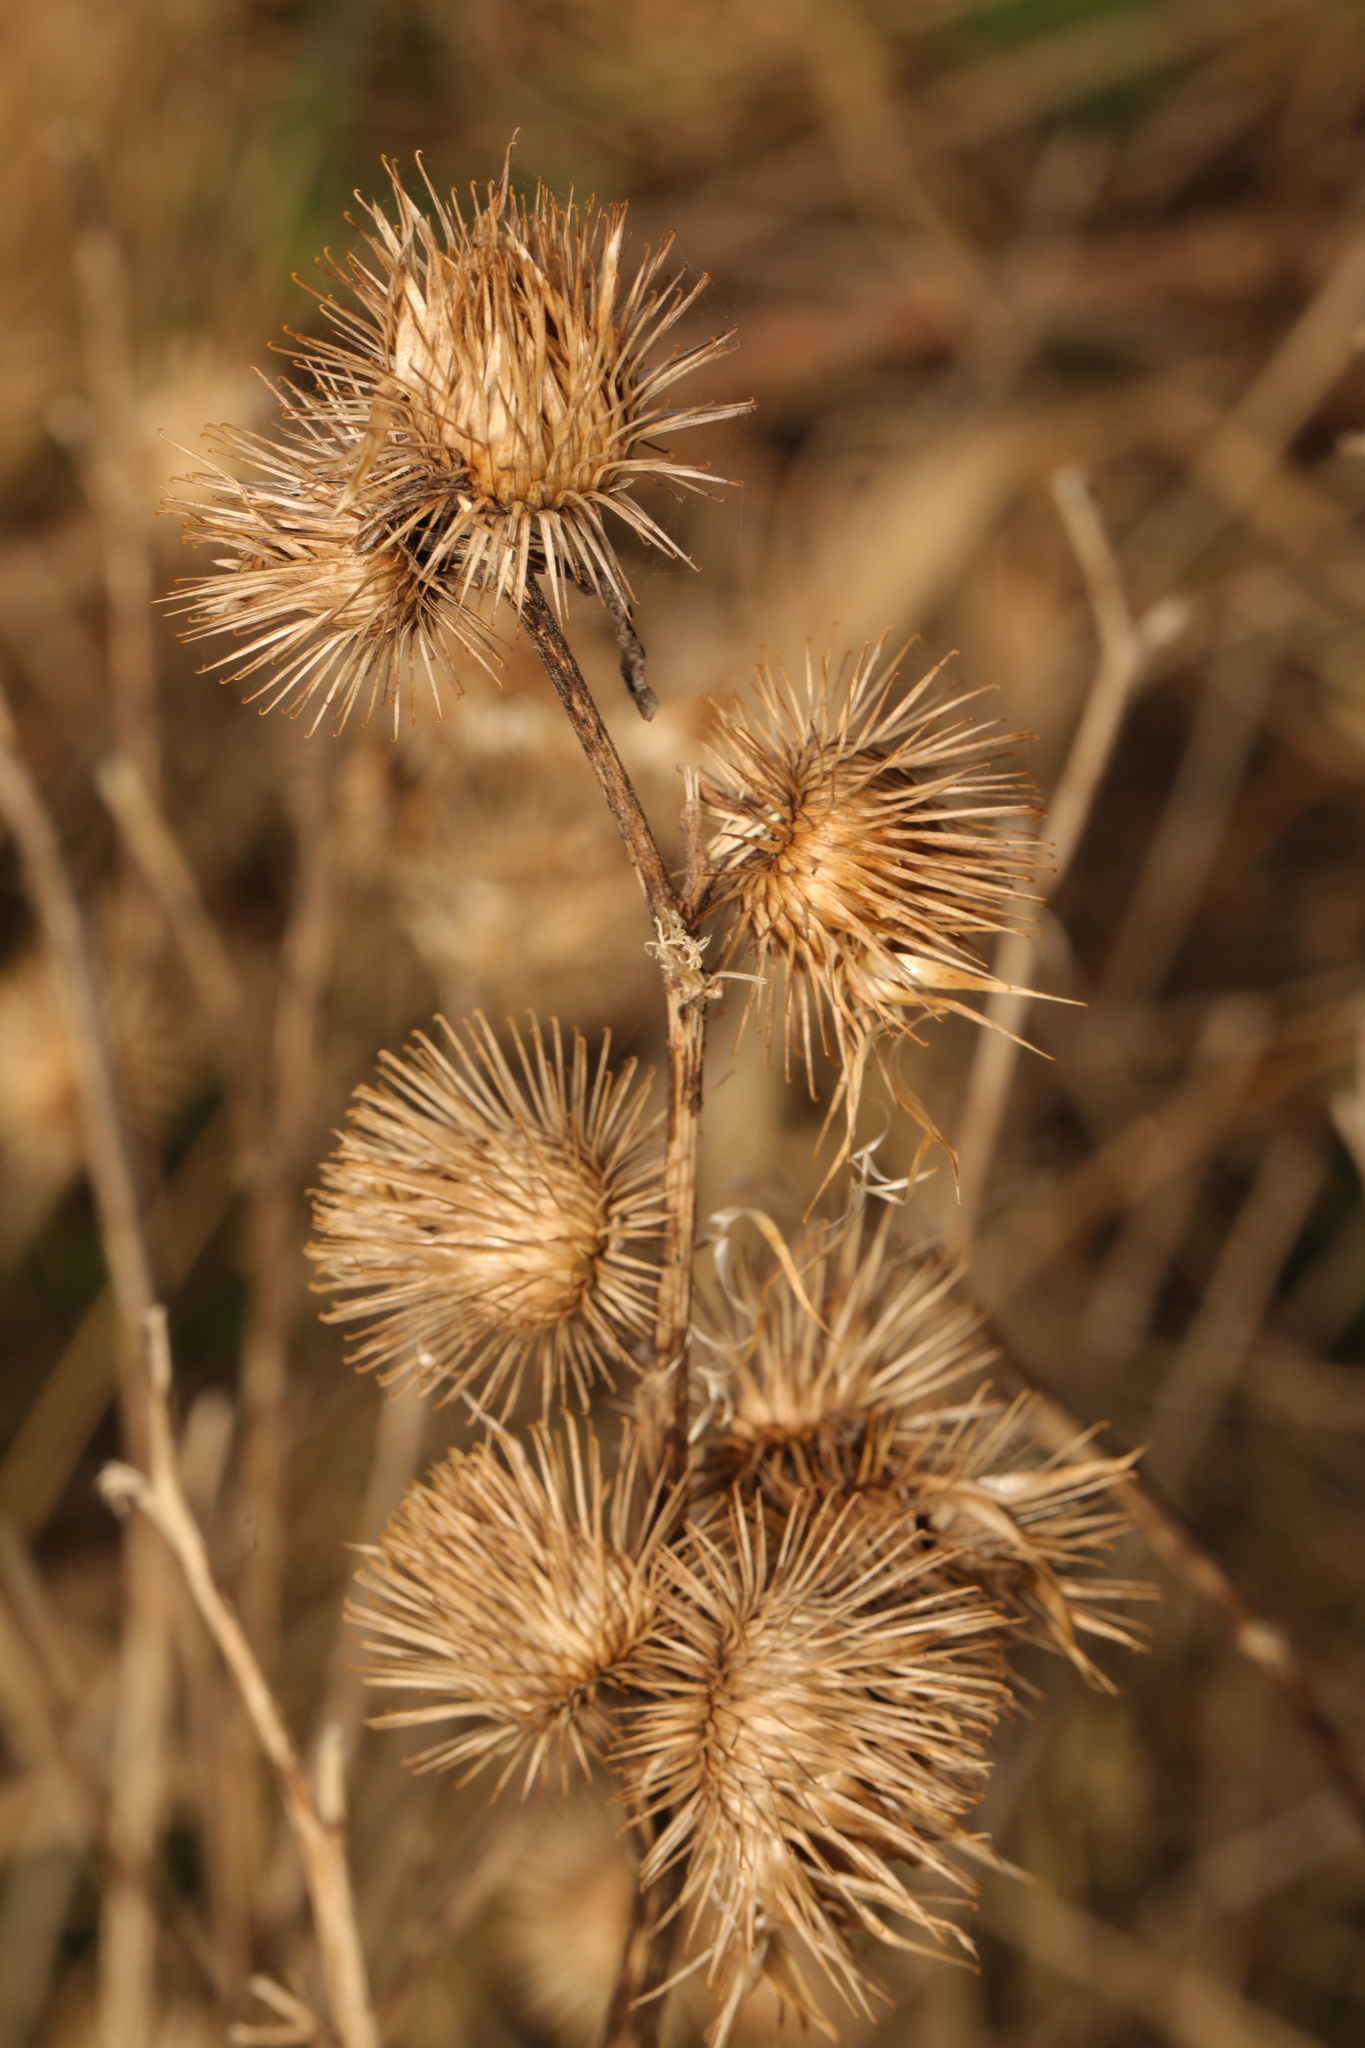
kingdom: Plantae
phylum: Tracheophyta
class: Magnoliopsida
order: Asterales
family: Asteraceae
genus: Arctium
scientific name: Arctium minus
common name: Lesser burdock
